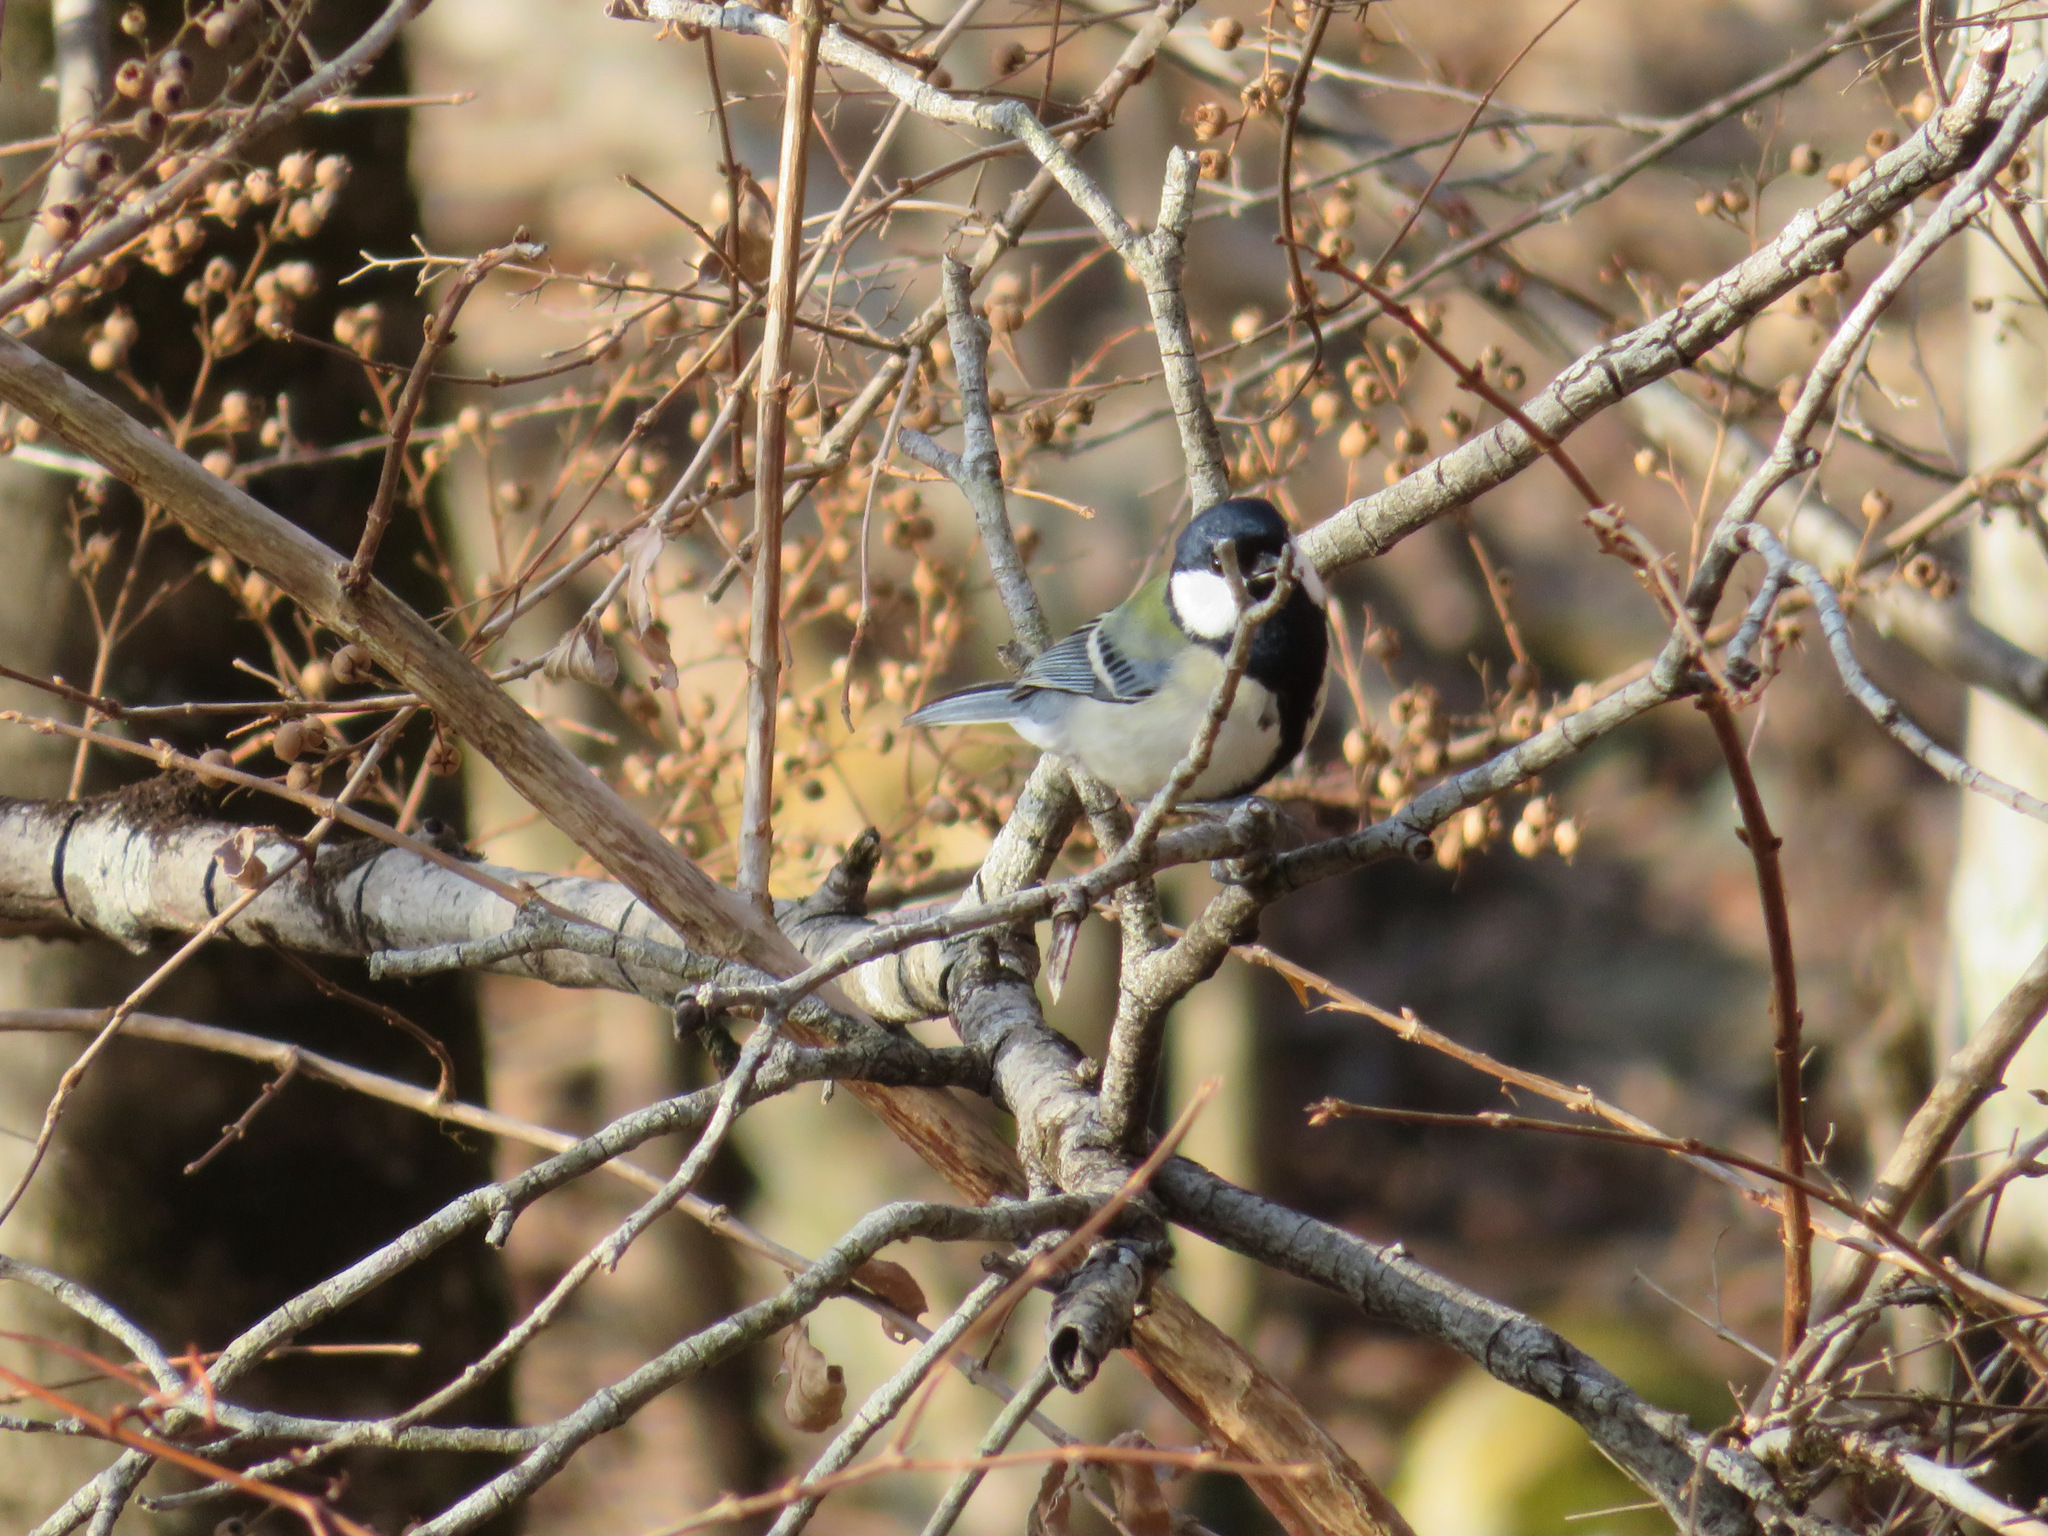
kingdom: Animalia
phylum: Chordata
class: Aves
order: Passeriformes
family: Paridae
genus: Parus
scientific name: Parus minor
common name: Japanese tit
